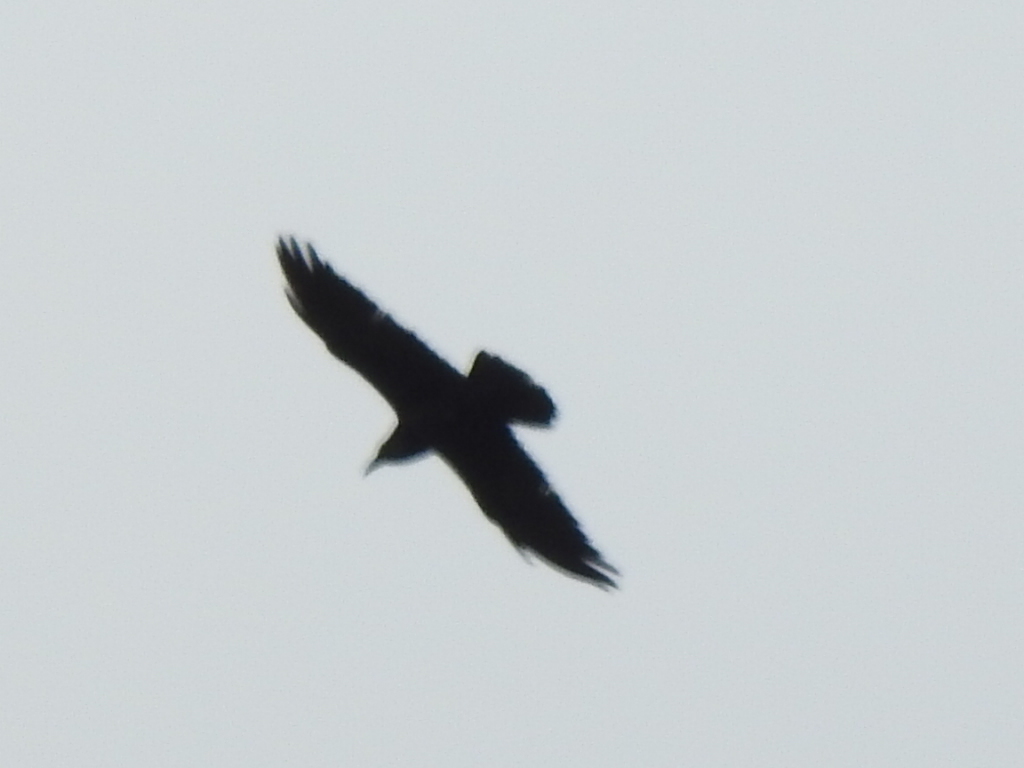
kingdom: Animalia
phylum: Chordata
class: Aves
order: Passeriformes
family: Corvidae
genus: Corvus
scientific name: Corvus corax
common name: Common raven
